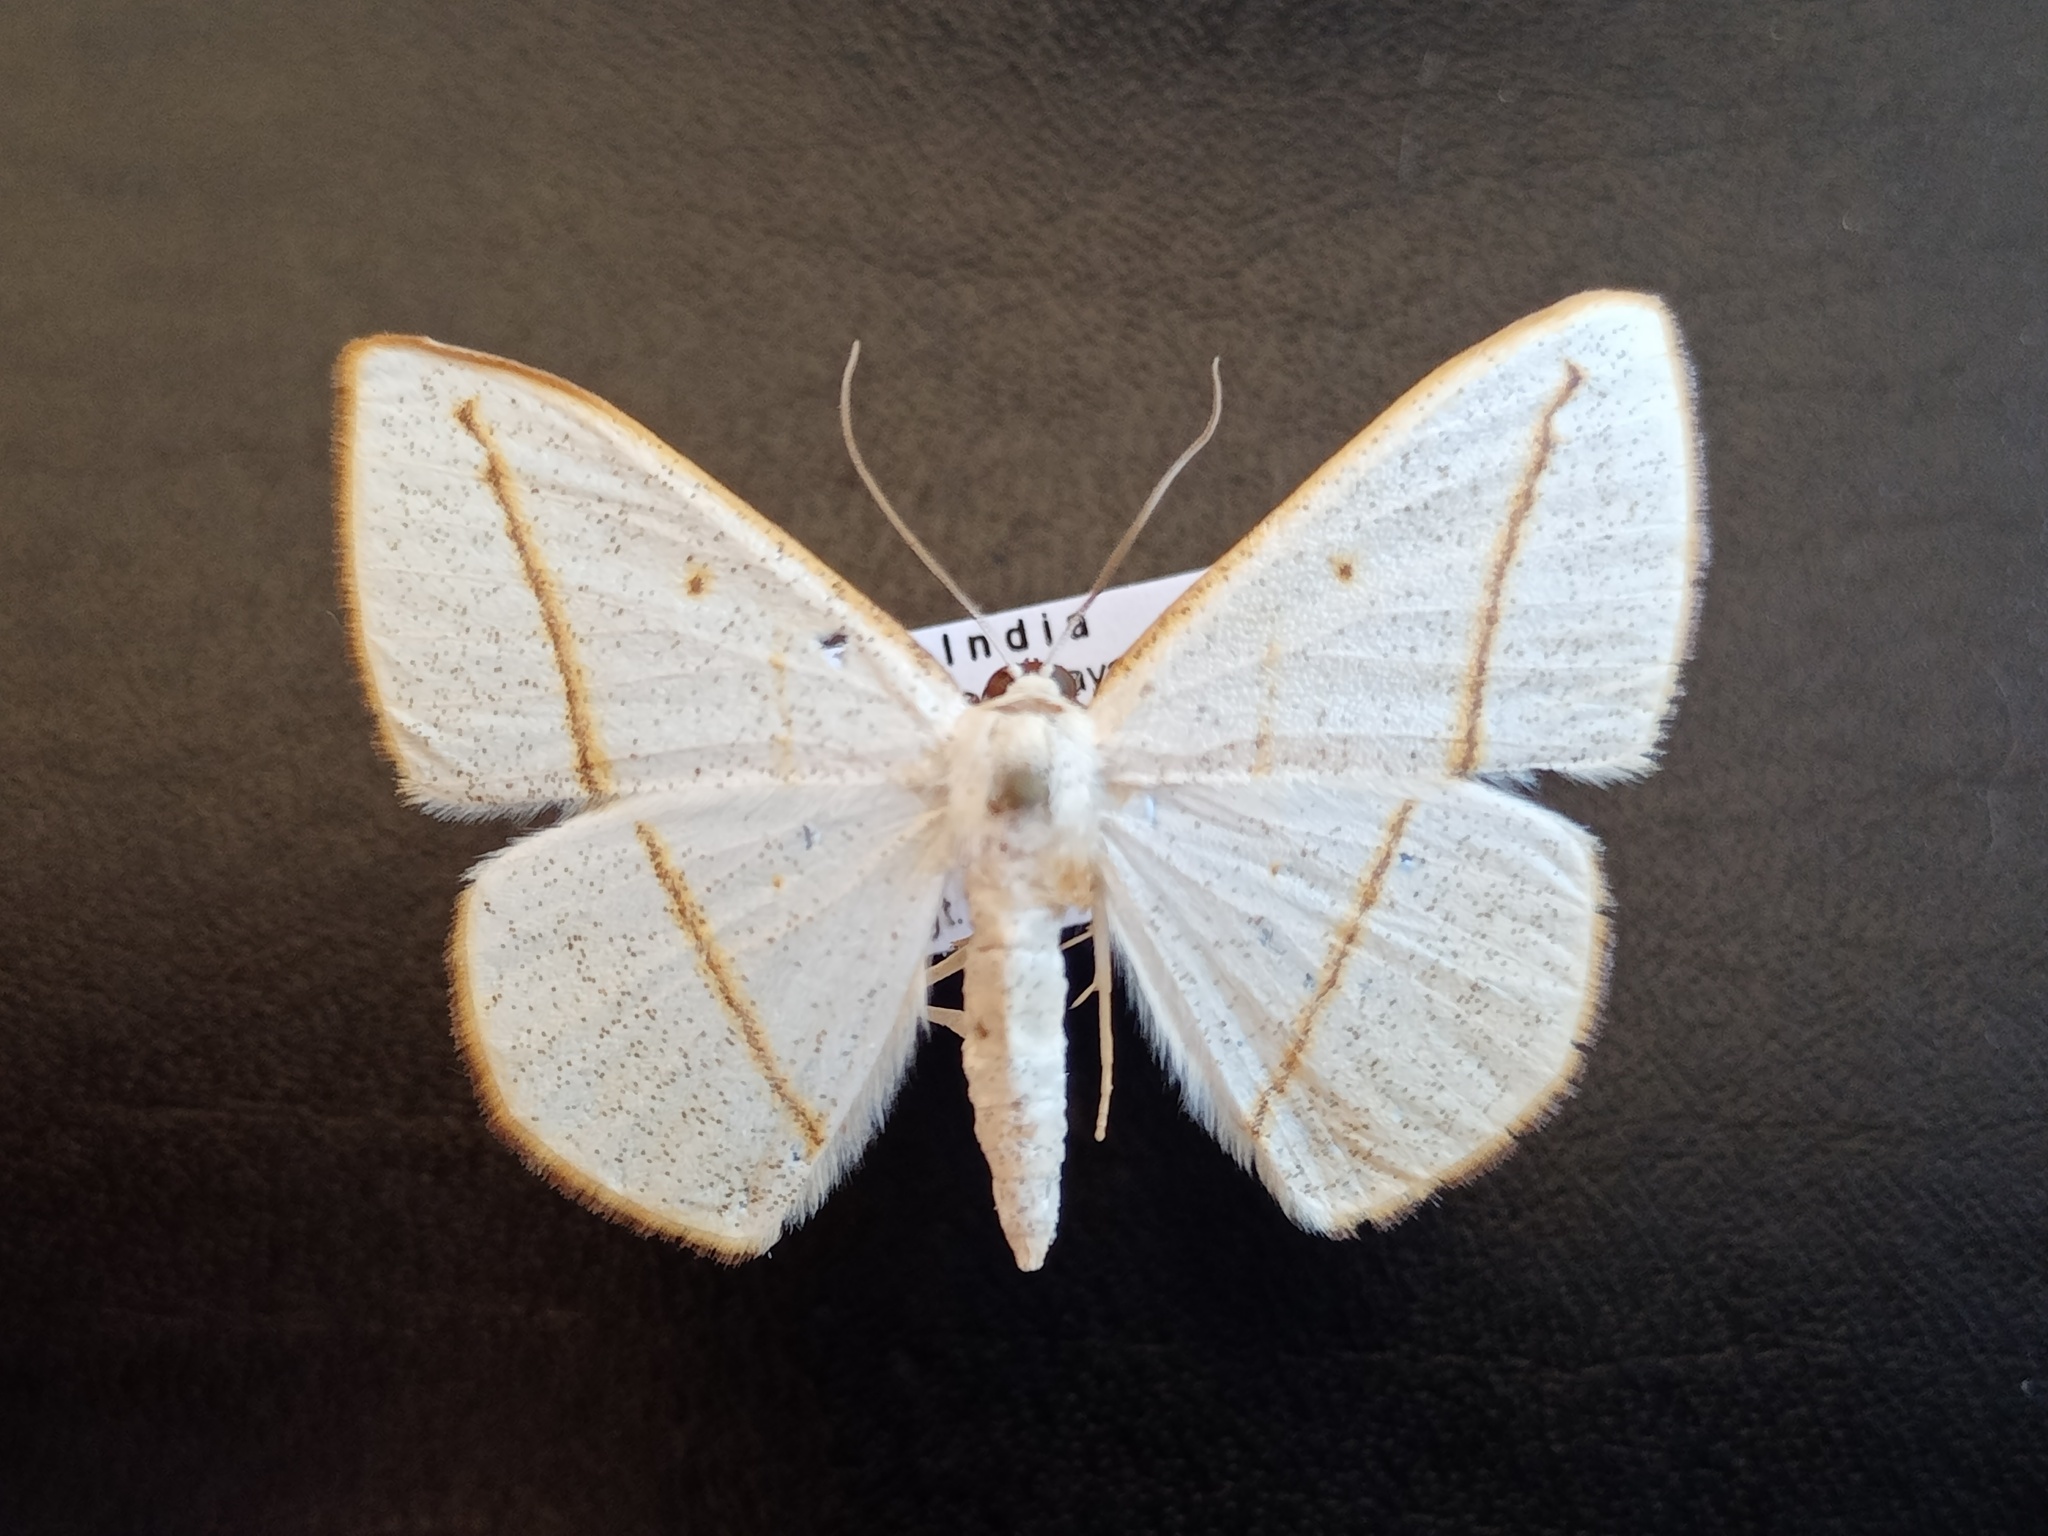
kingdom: Animalia
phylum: Arthropoda
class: Insecta
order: Lepidoptera
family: Geometridae
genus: Lomographa
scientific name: Lomographa inamata
